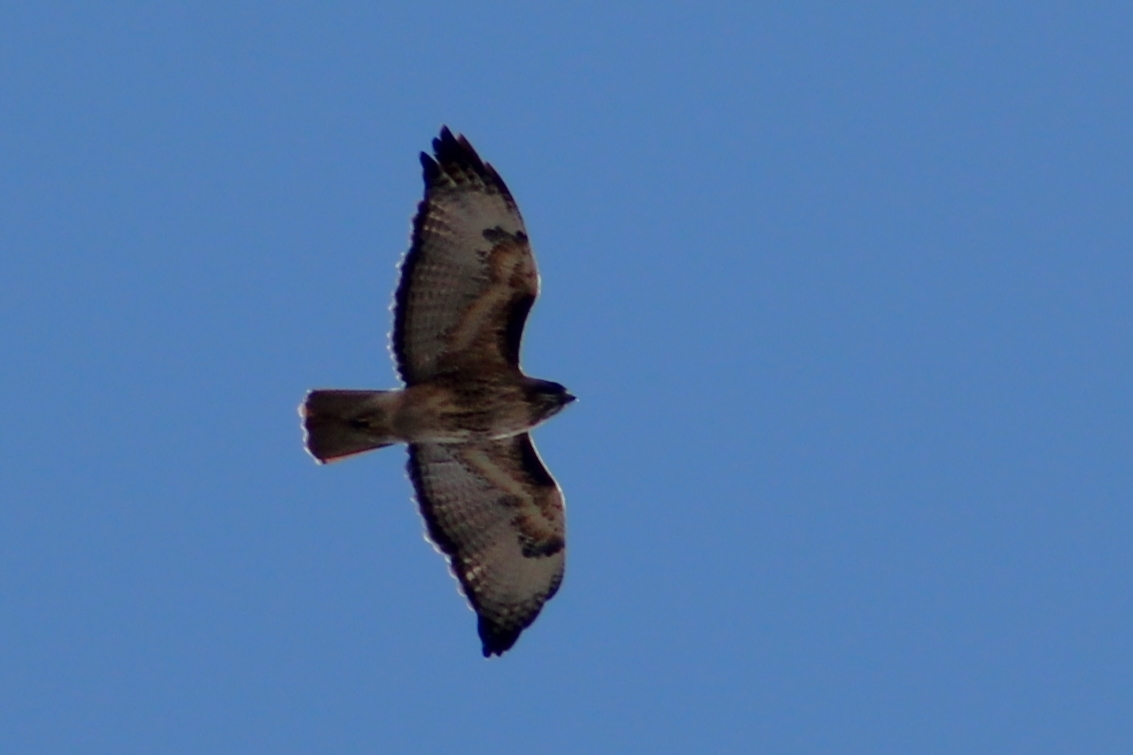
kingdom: Animalia
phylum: Chordata
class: Aves
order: Accipitriformes
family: Accipitridae
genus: Buteo
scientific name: Buteo jamaicensis
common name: Red-tailed hawk
